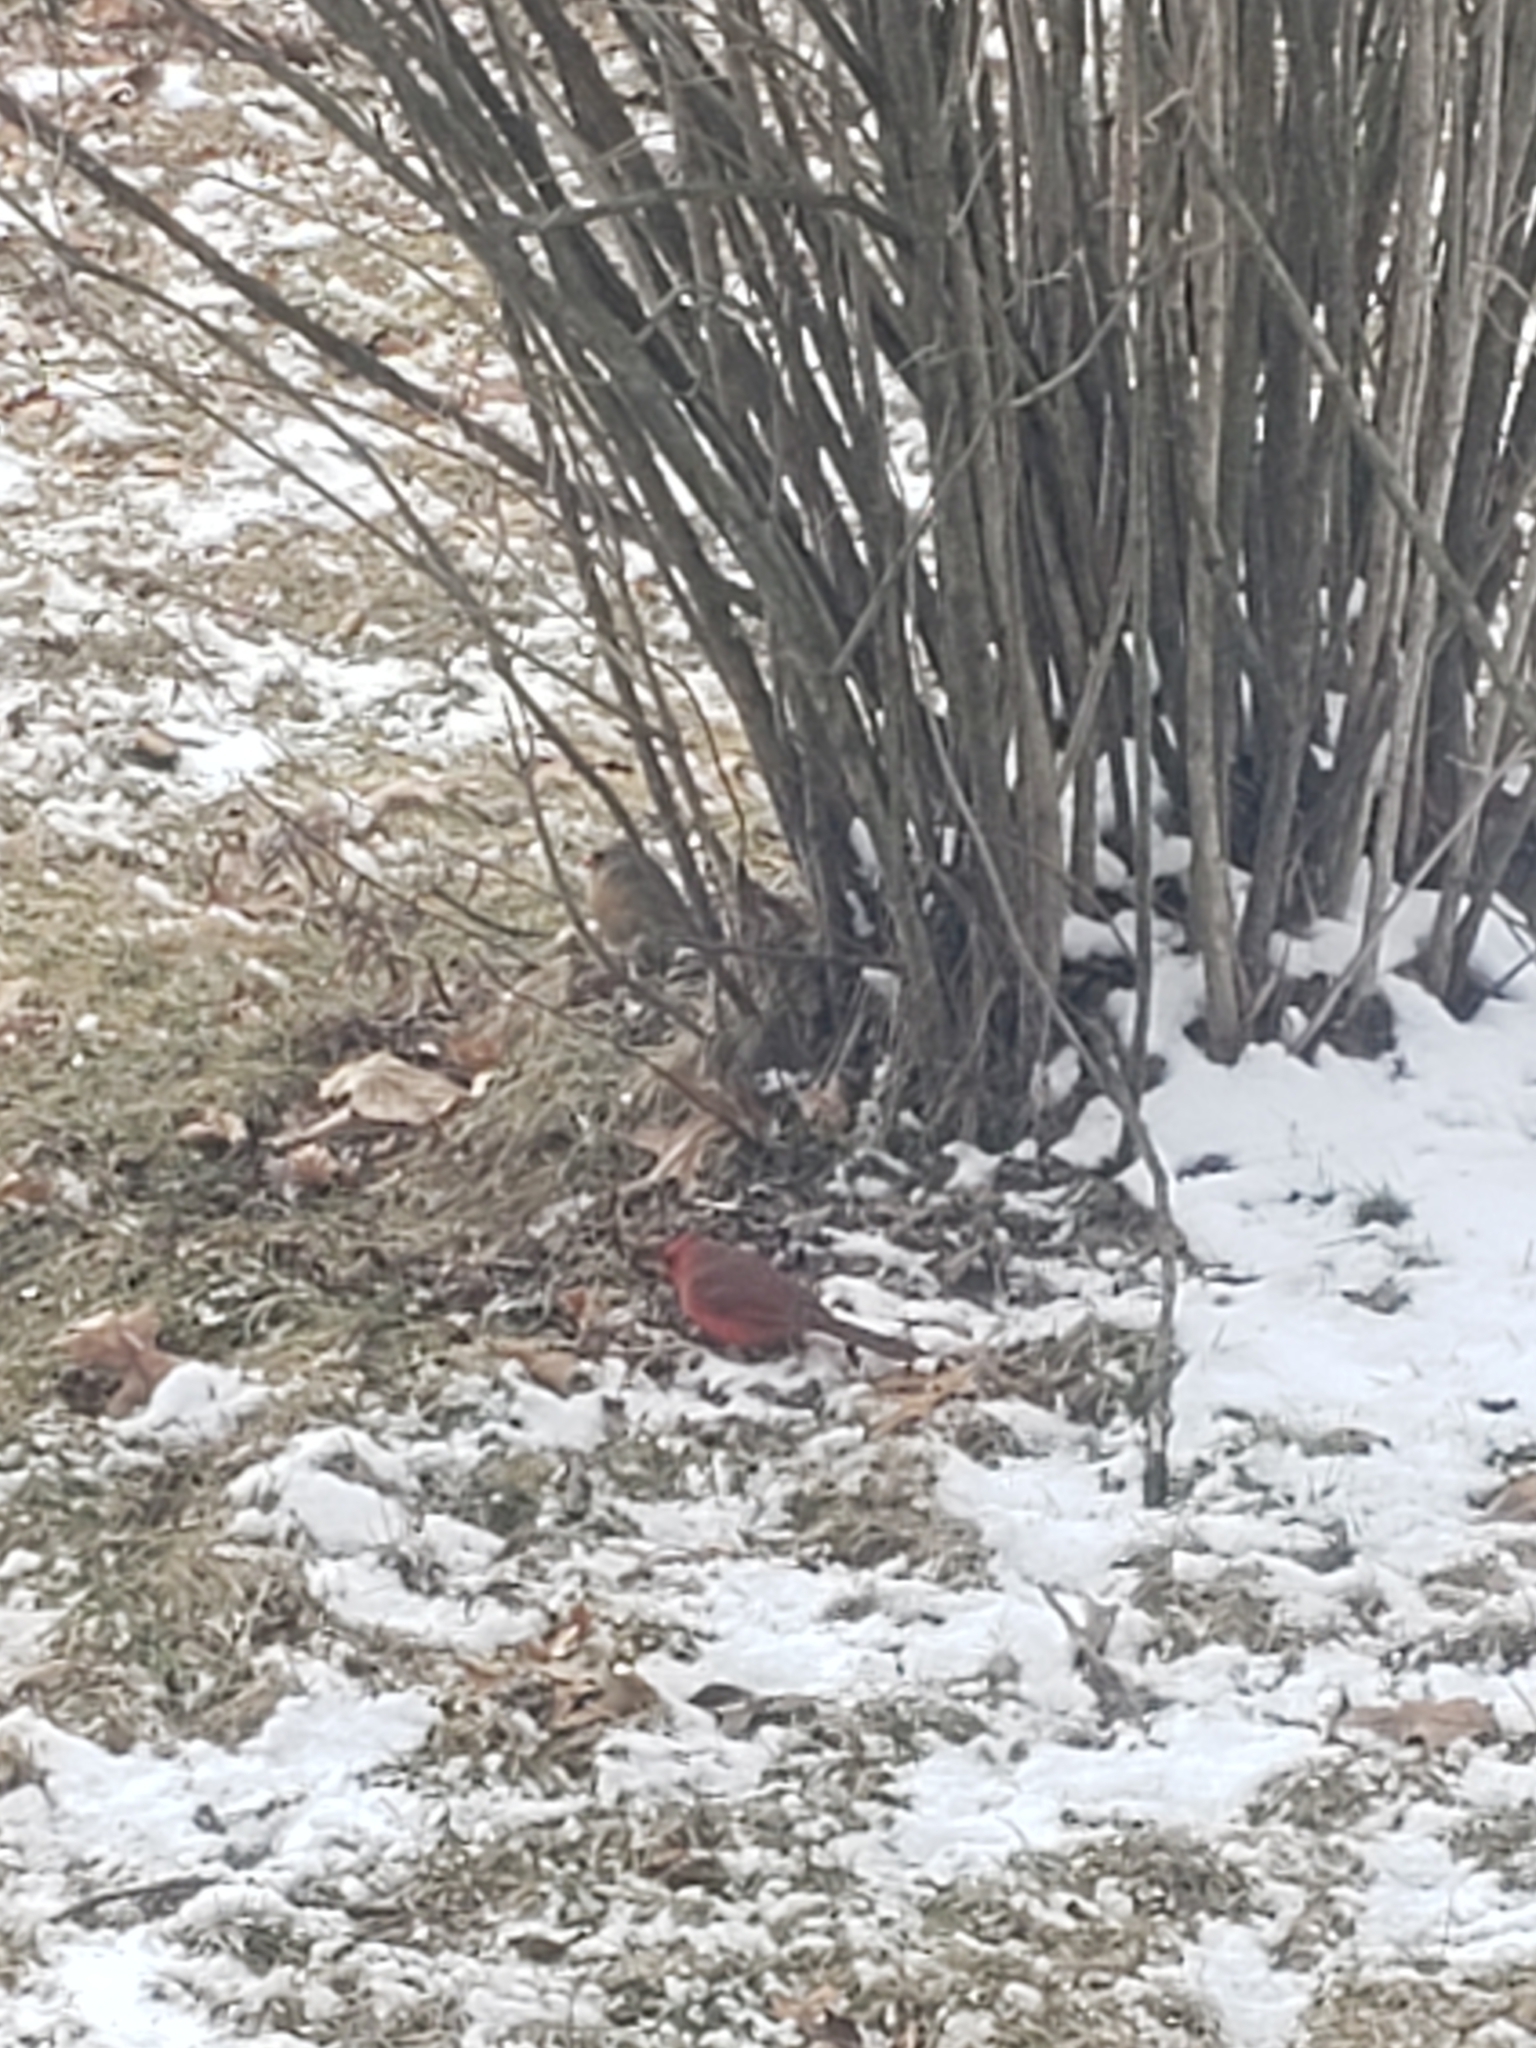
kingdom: Animalia
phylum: Chordata
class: Aves
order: Passeriformes
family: Cardinalidae
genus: Cardinalis
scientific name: Cardinalis cardinalis
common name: Northern cardinal
